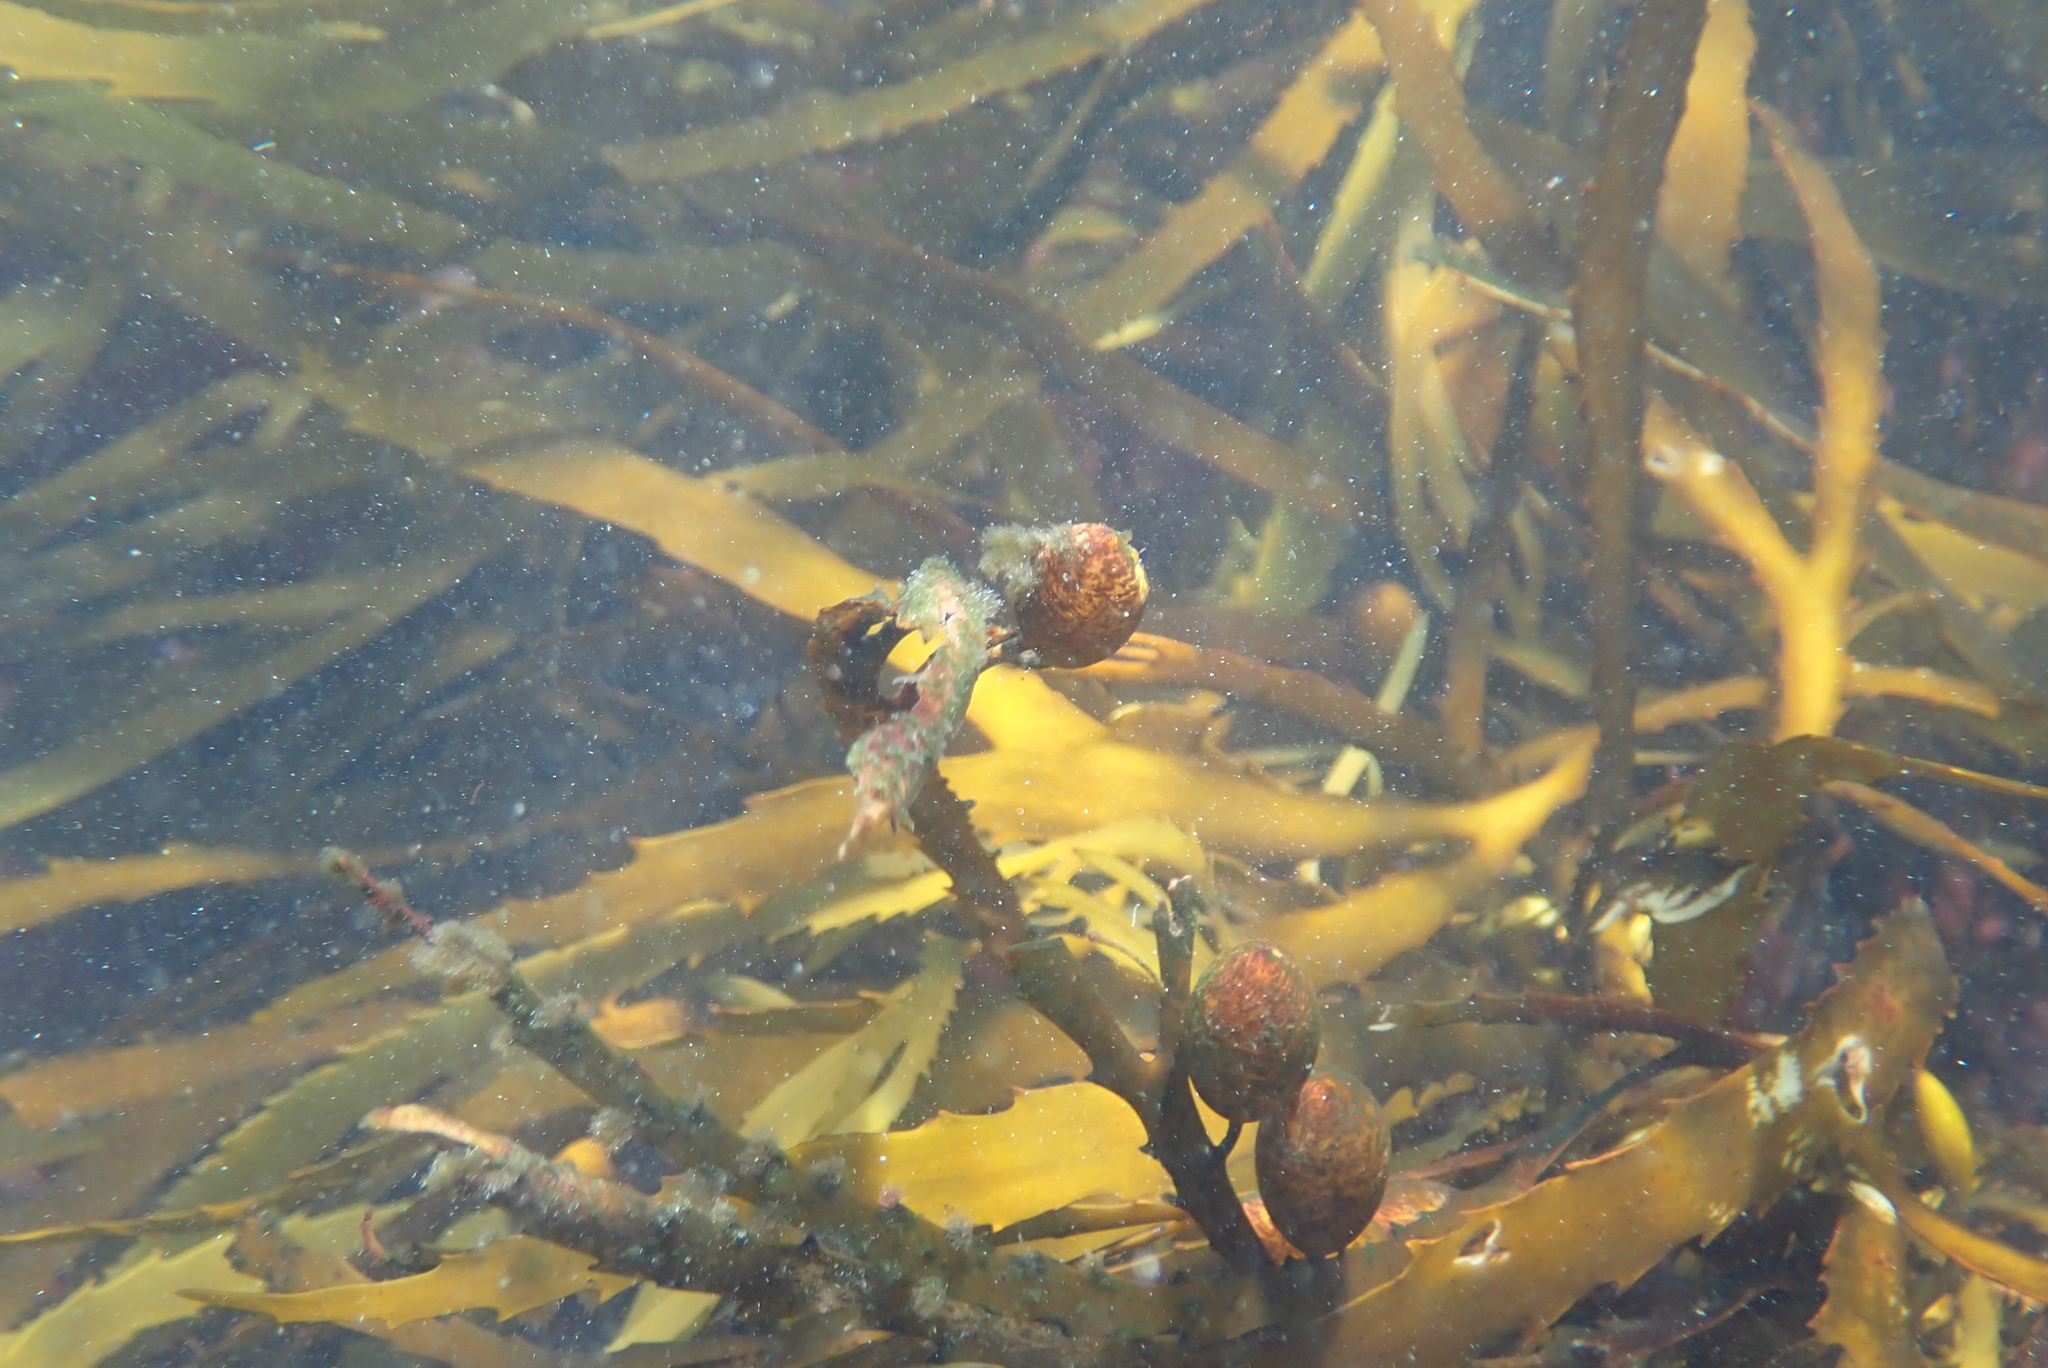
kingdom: Chromista
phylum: Ochrophyta
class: Phaeophyceae
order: Fucales
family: Seirococcaceae
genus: Marginariella
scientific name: Marginariella boryana
